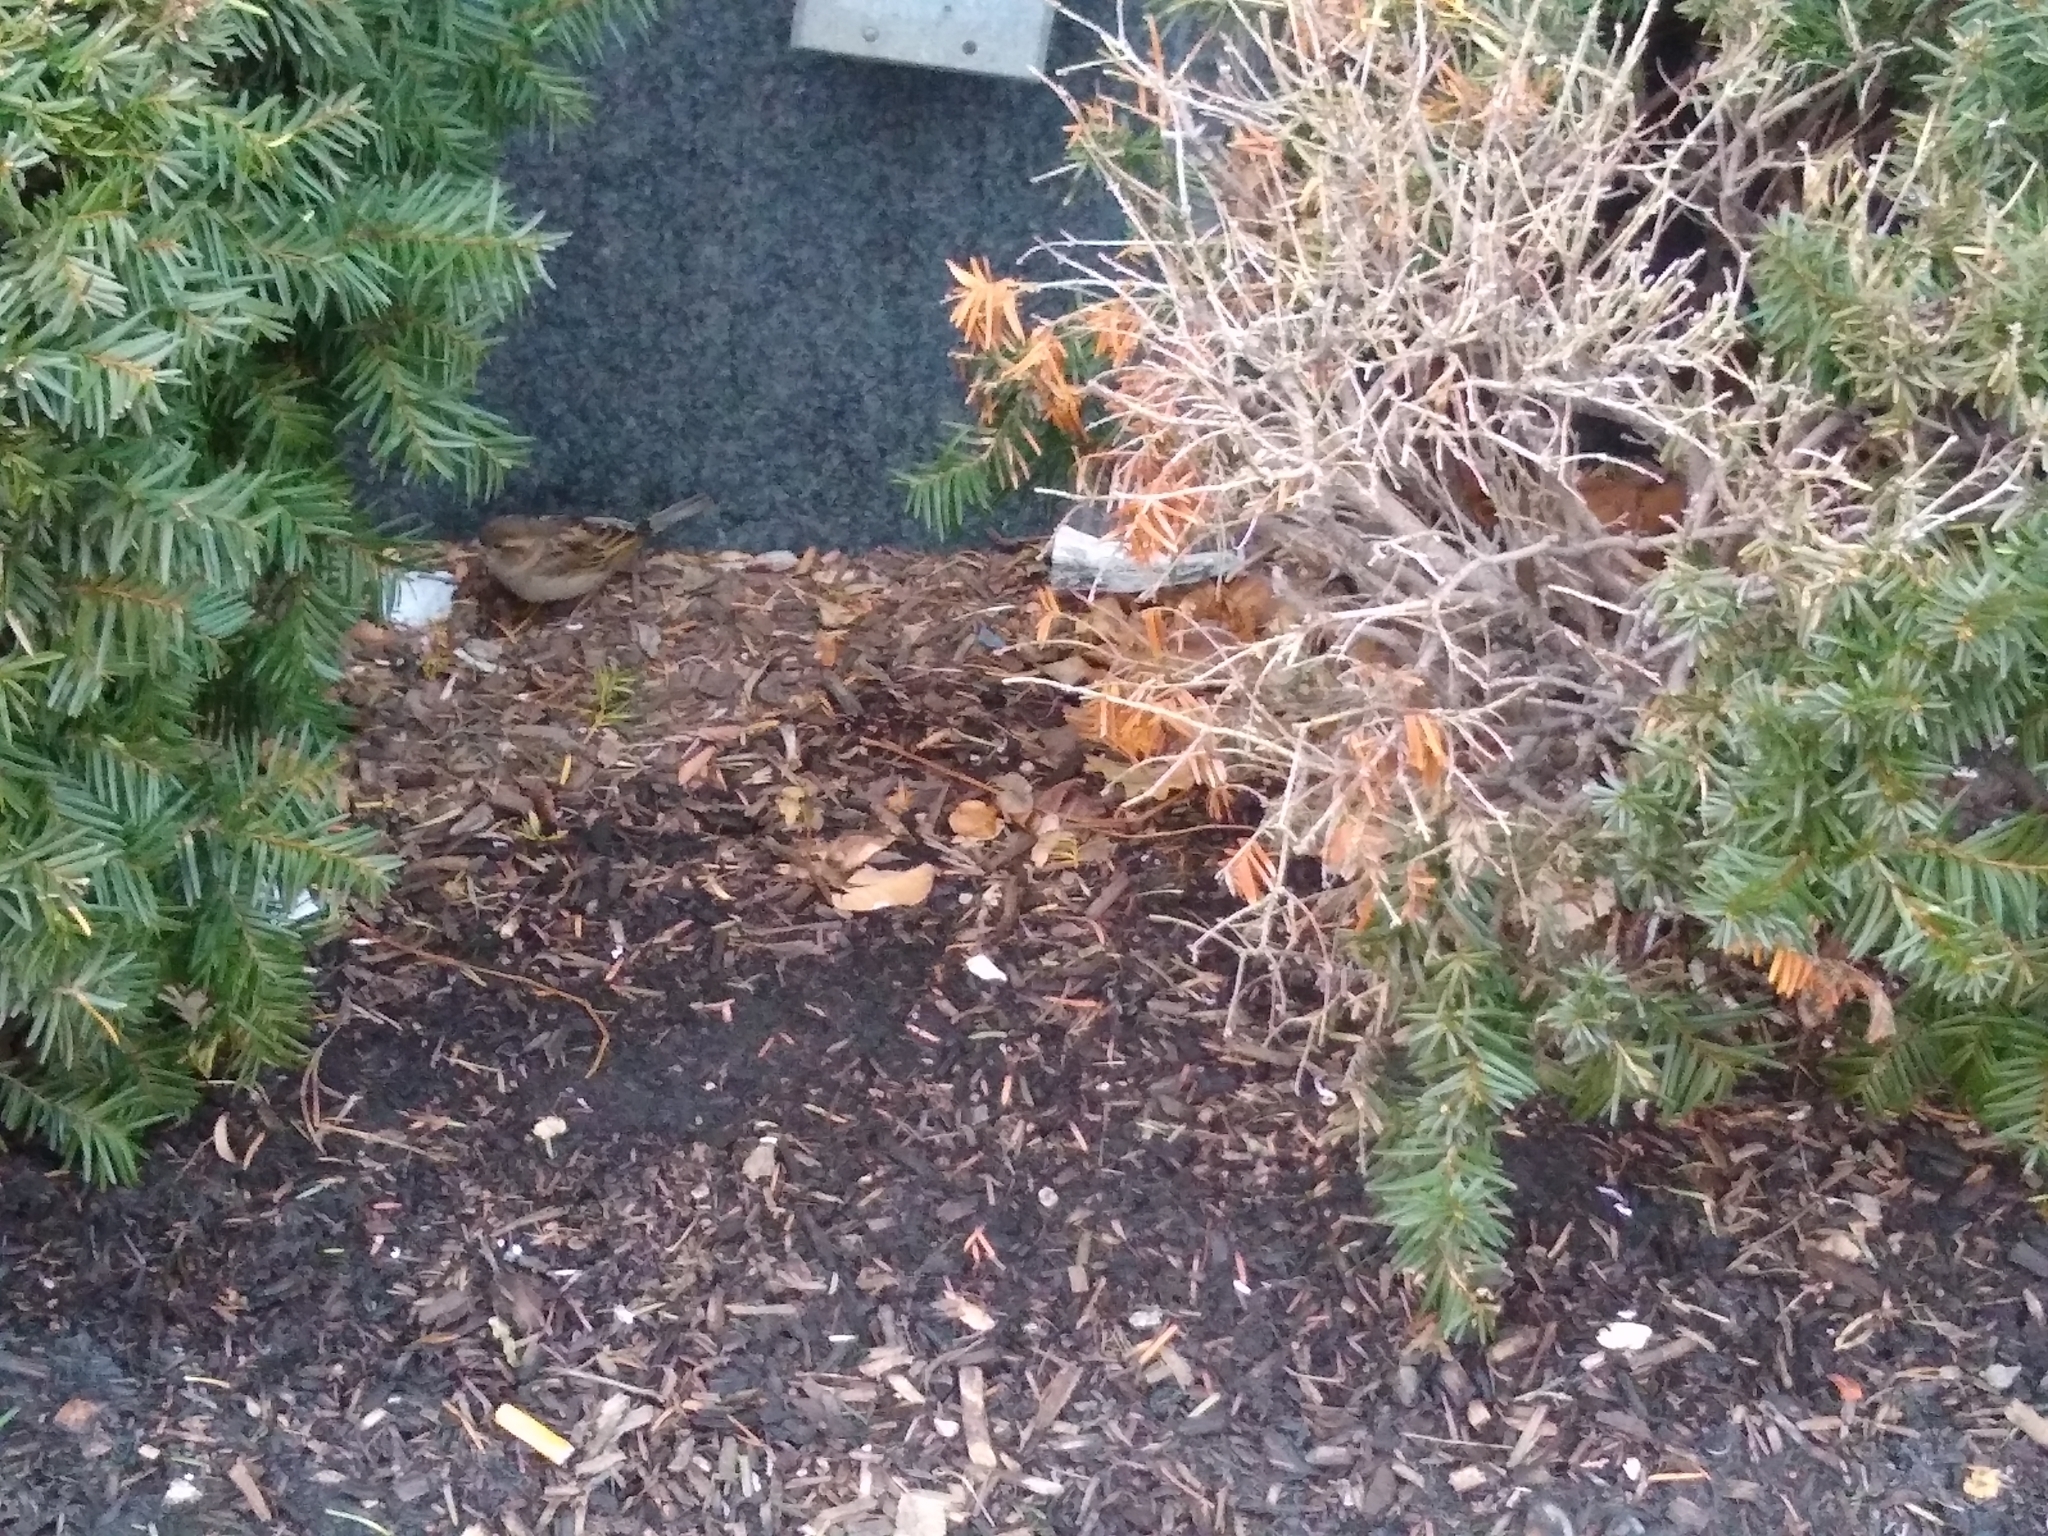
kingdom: Animalia
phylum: Chordata
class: Aves
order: Passeriformes
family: Passeridae
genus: Passer
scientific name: Passer domesticus
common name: House sparrow
